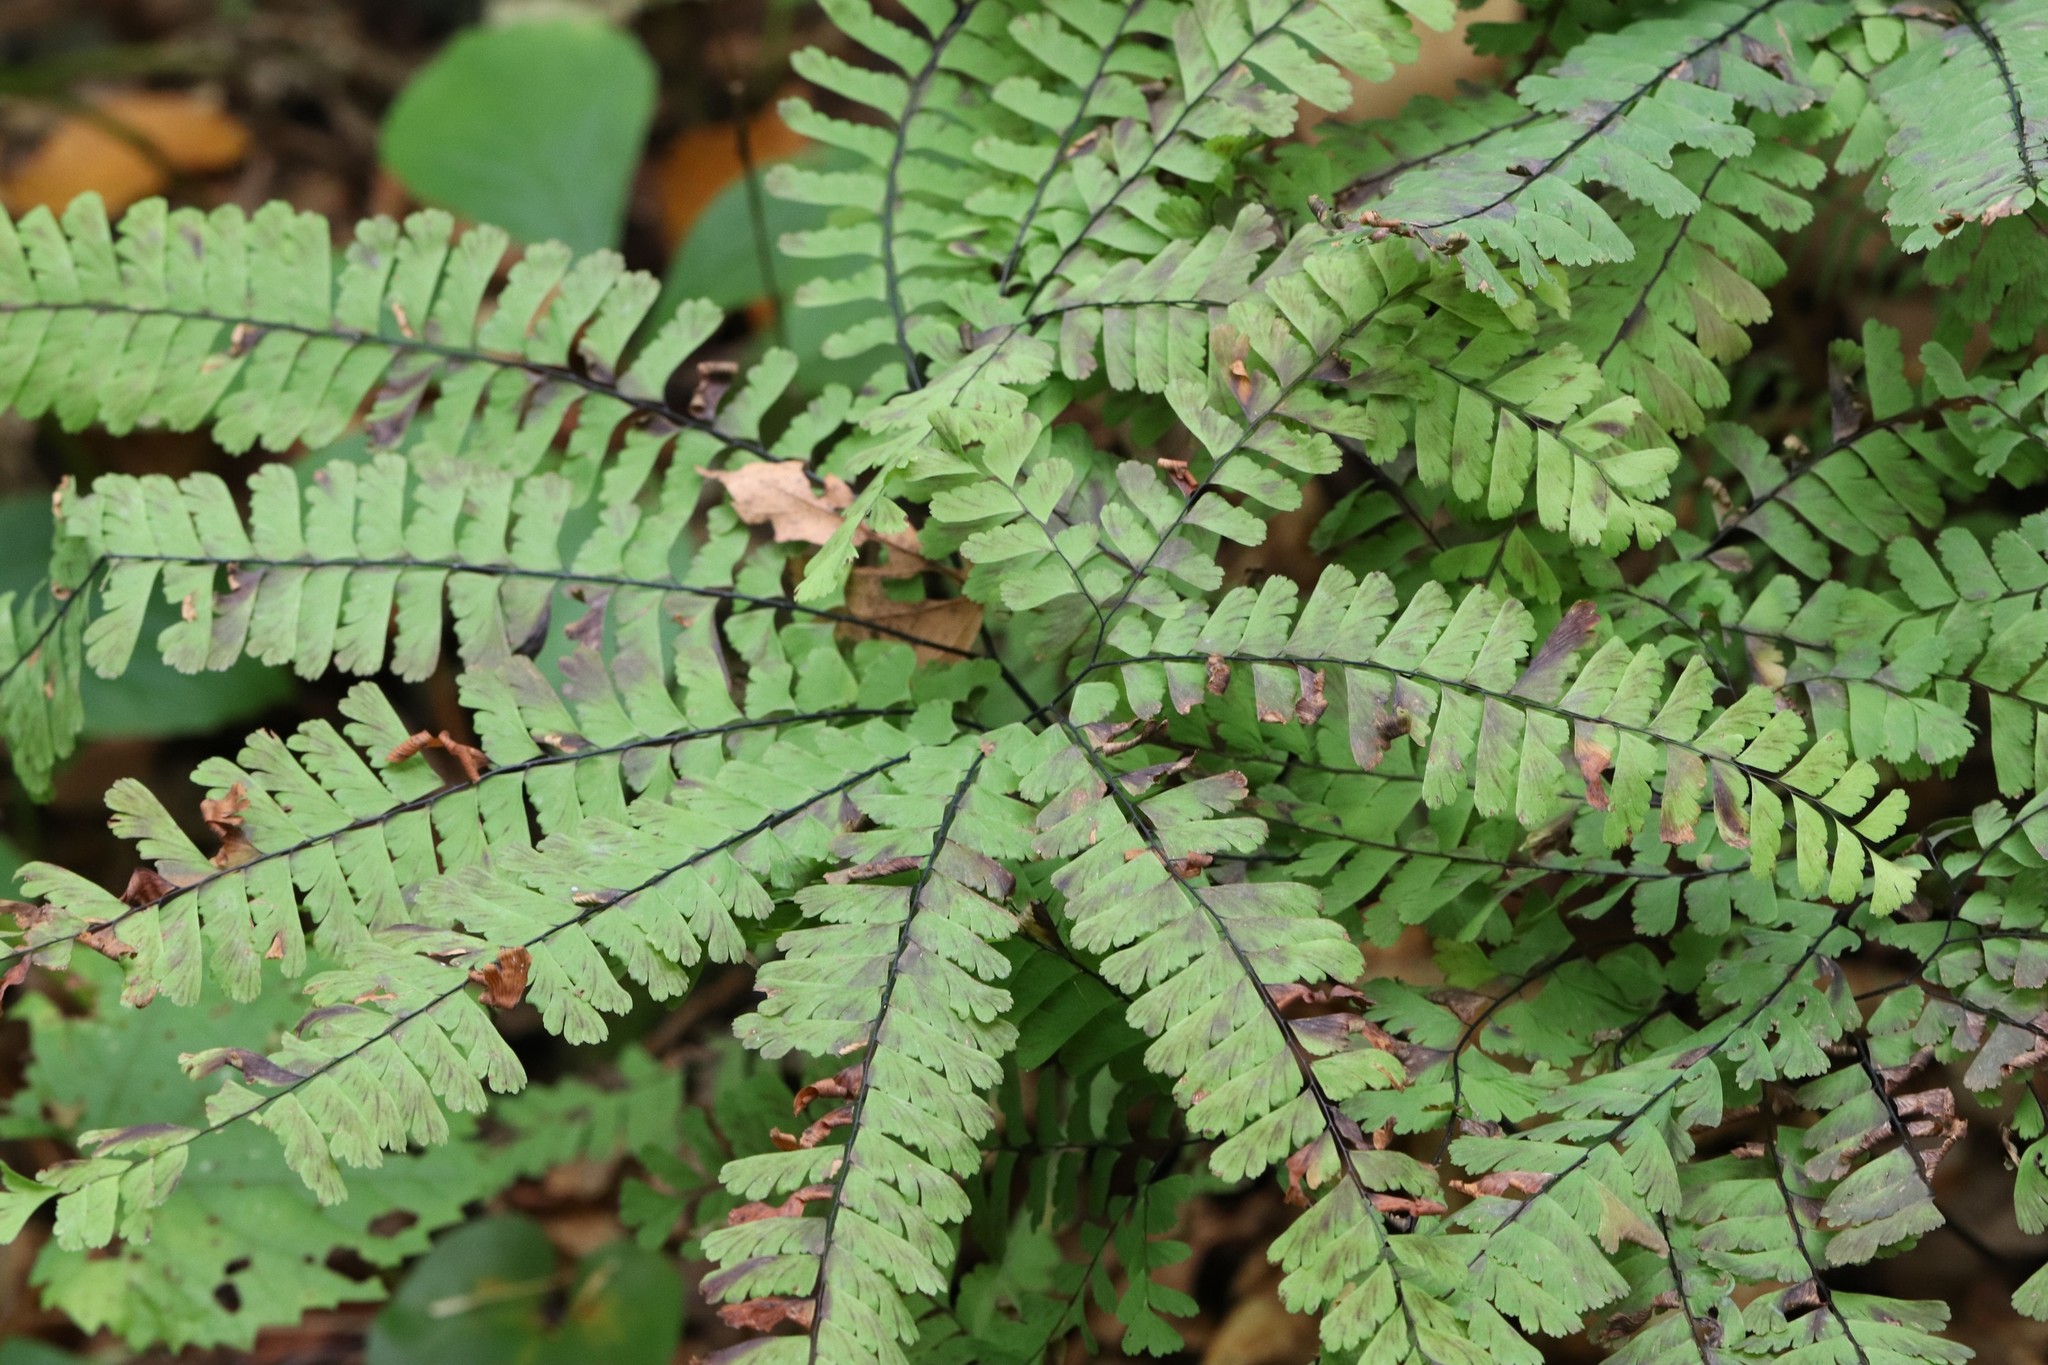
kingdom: Plantae
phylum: Tracheophyta
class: Polypodiopsida
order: Polypodiales
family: Pteridaceae
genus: Adiantum
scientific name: Adiantum pedatum
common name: Five-finger fern
